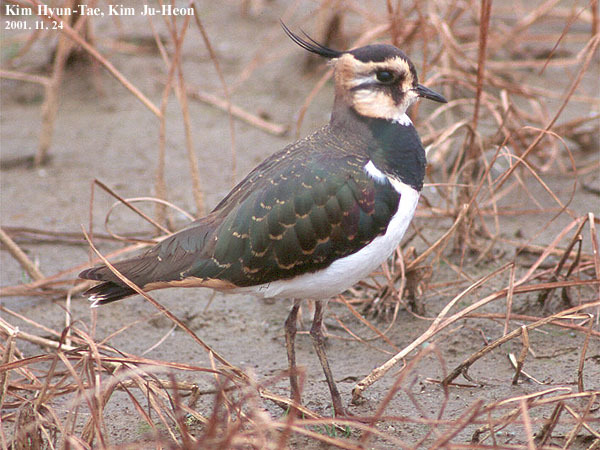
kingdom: Animalia
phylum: Chordata
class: Aves
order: Charadriiformes
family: Charadriidae
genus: Vanellus
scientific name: Vanellus vanellus
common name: Northern lapwing
